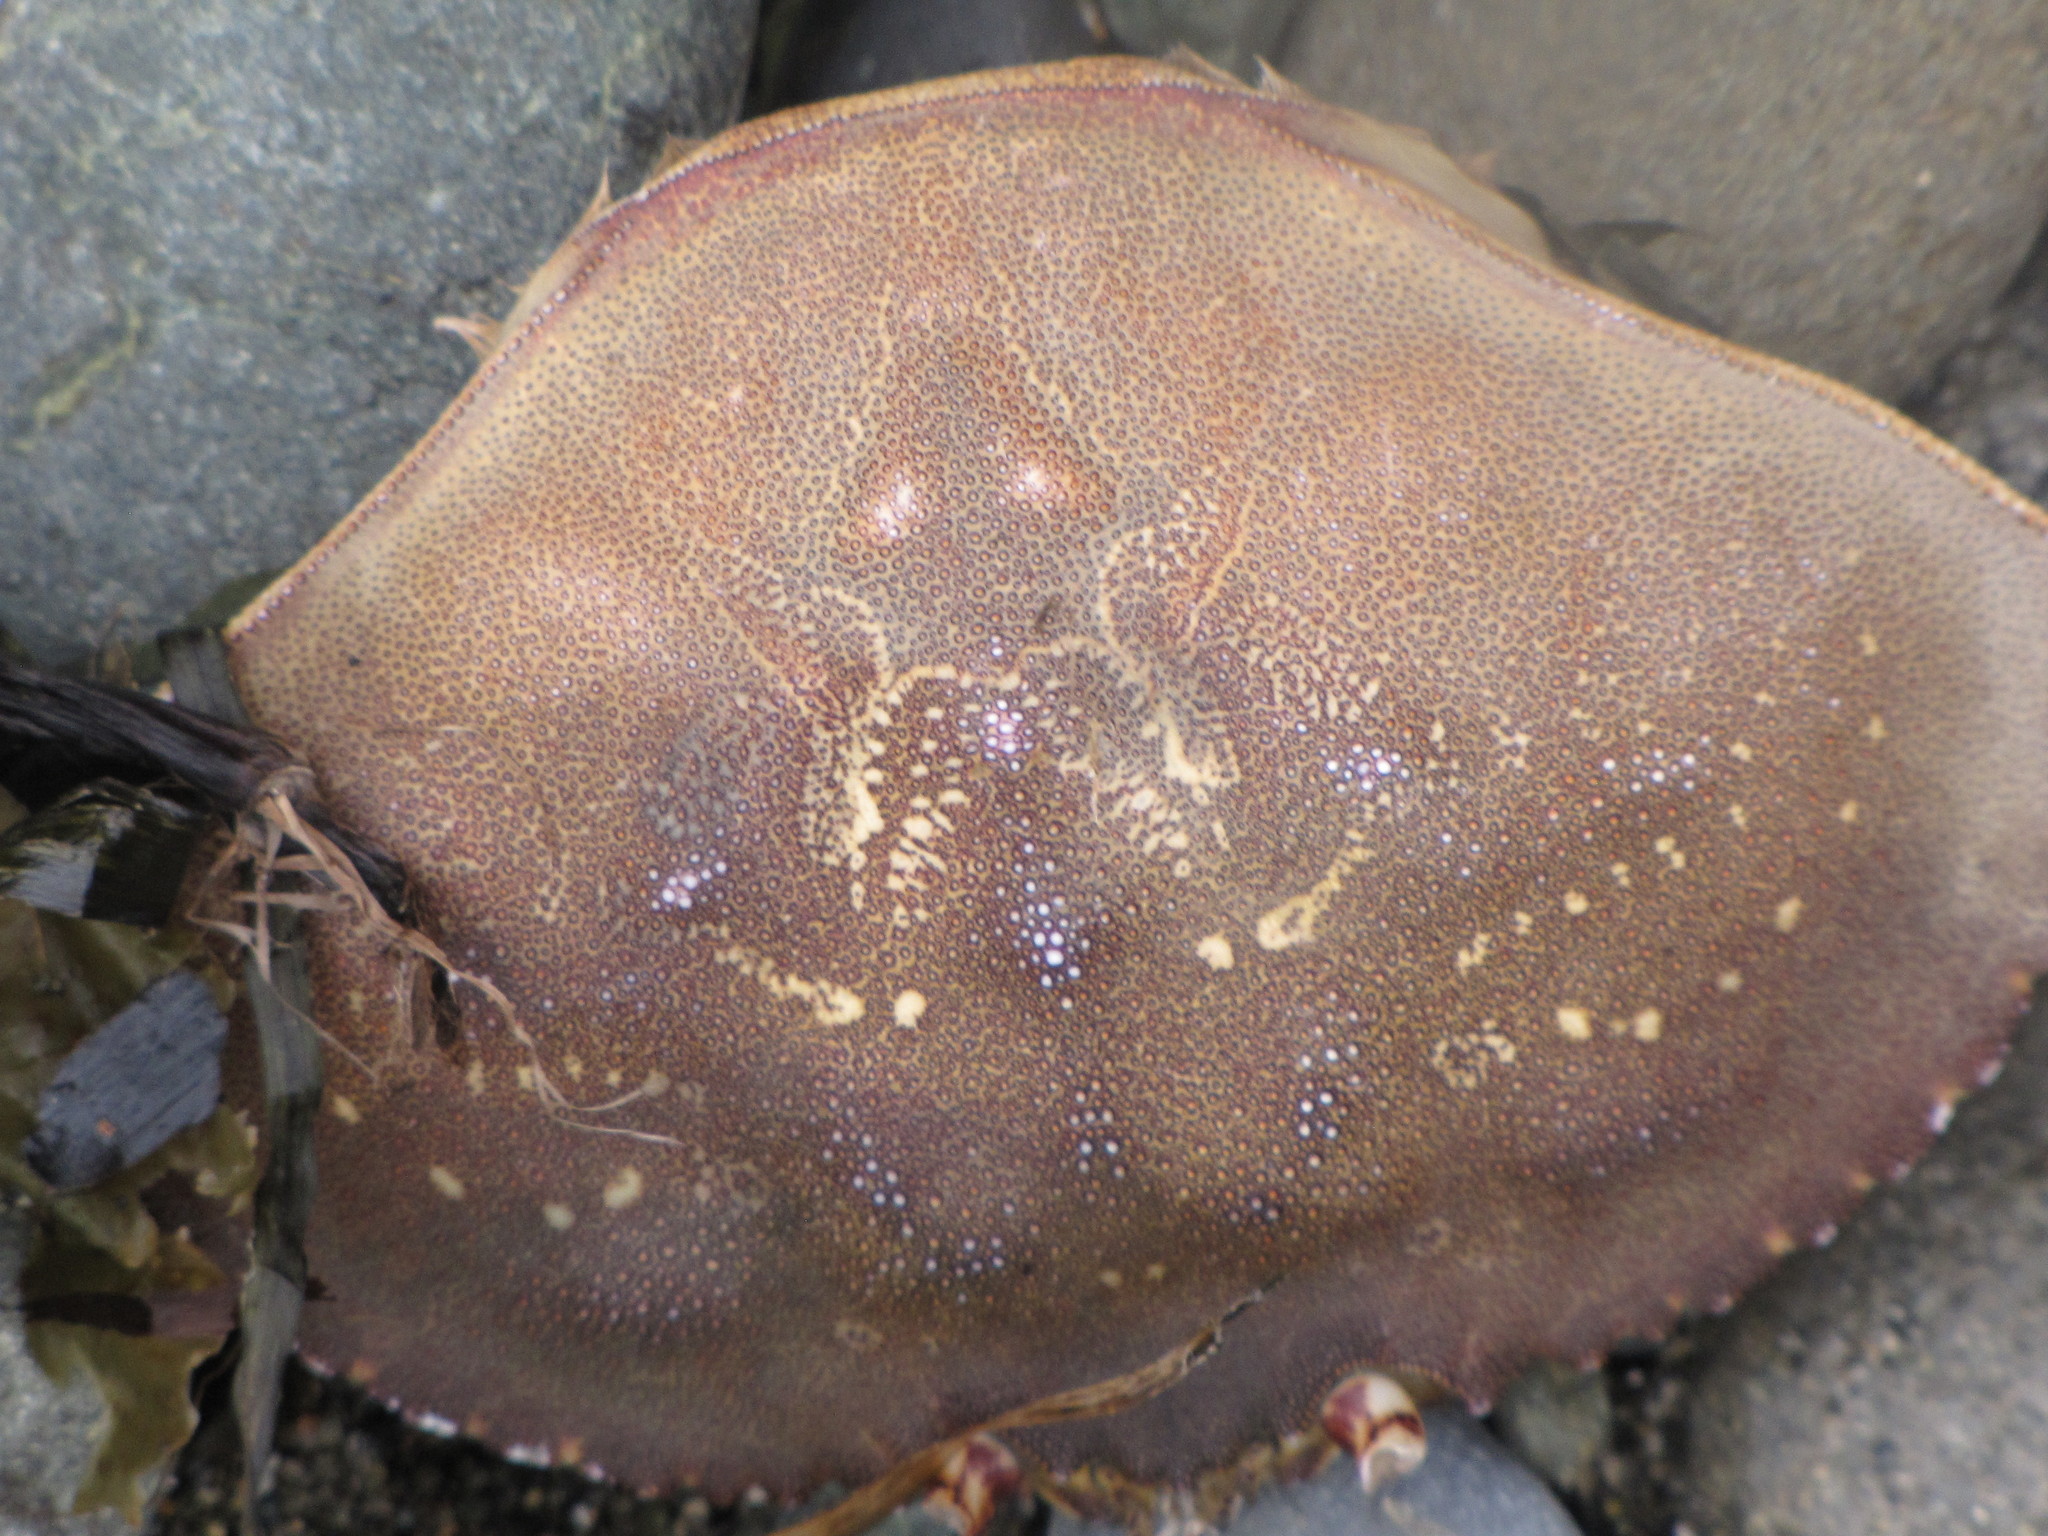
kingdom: Animalia
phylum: Arthropoda
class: Malacostraca
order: Decapoda
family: Cancridae
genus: Metacarcinus
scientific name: Metacarcinus magister
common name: Californian crab
